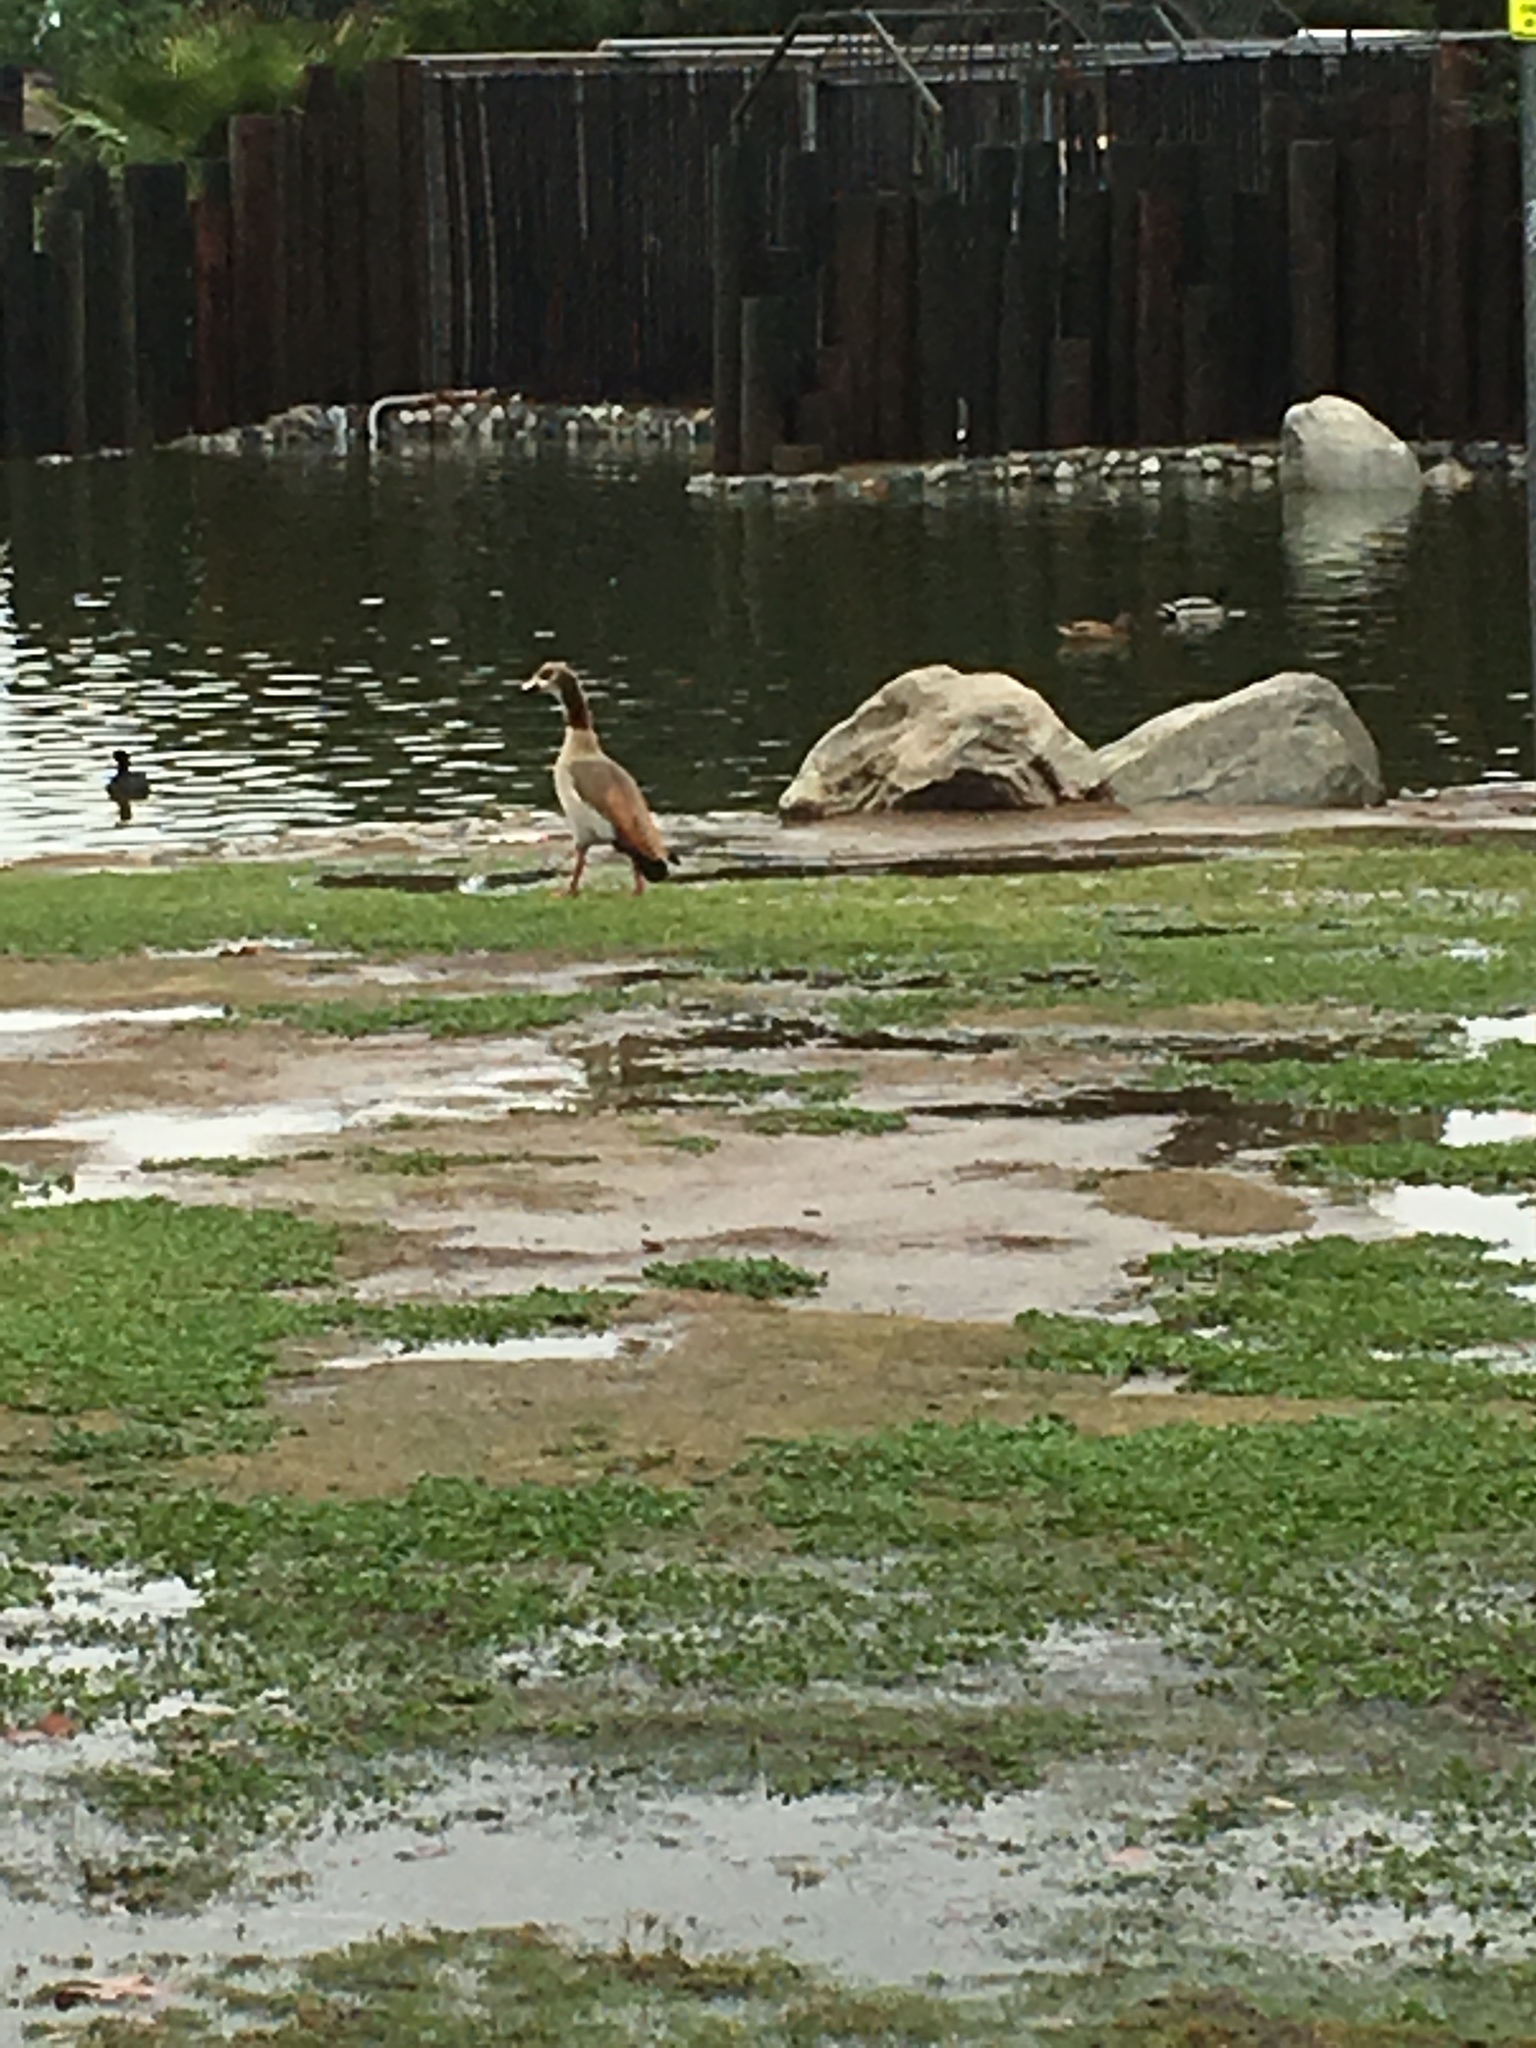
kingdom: Animalia
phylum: Chordata
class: Aves
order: Anseriformes
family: Anatidae
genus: Alopochen
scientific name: Alopochen aegyptiaca
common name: Egyptian goose
